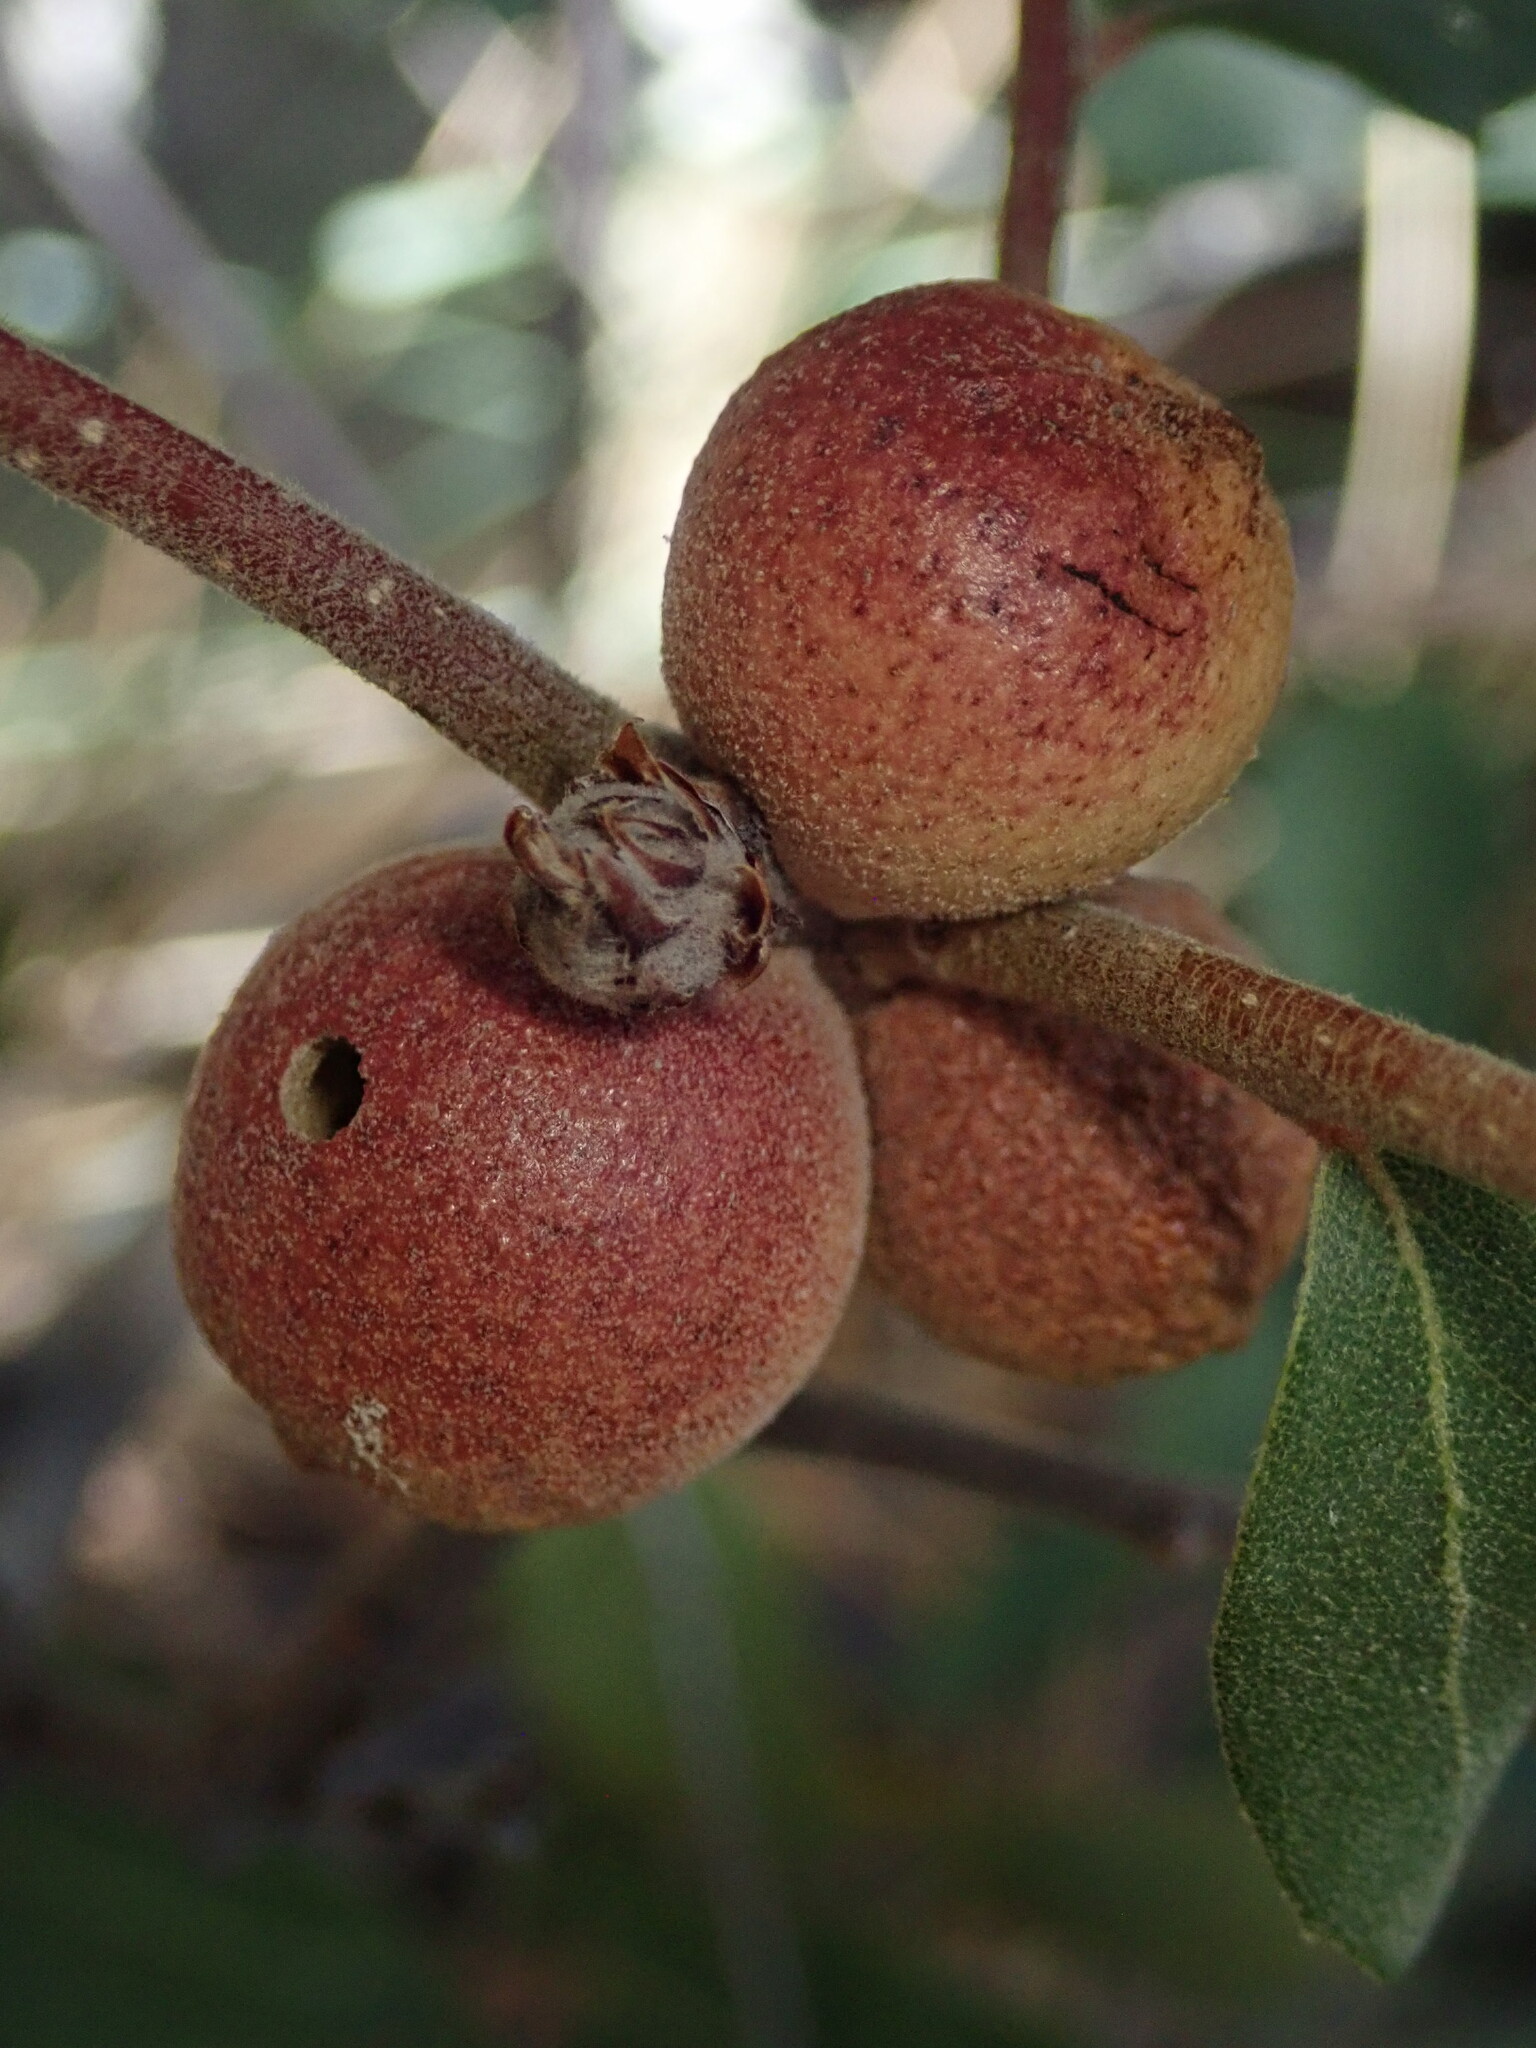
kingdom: Animalia
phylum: Arthropoda
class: Insecta
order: Hymenoptera
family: Cynipidae
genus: Disholcaspis
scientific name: Disholcaspis
